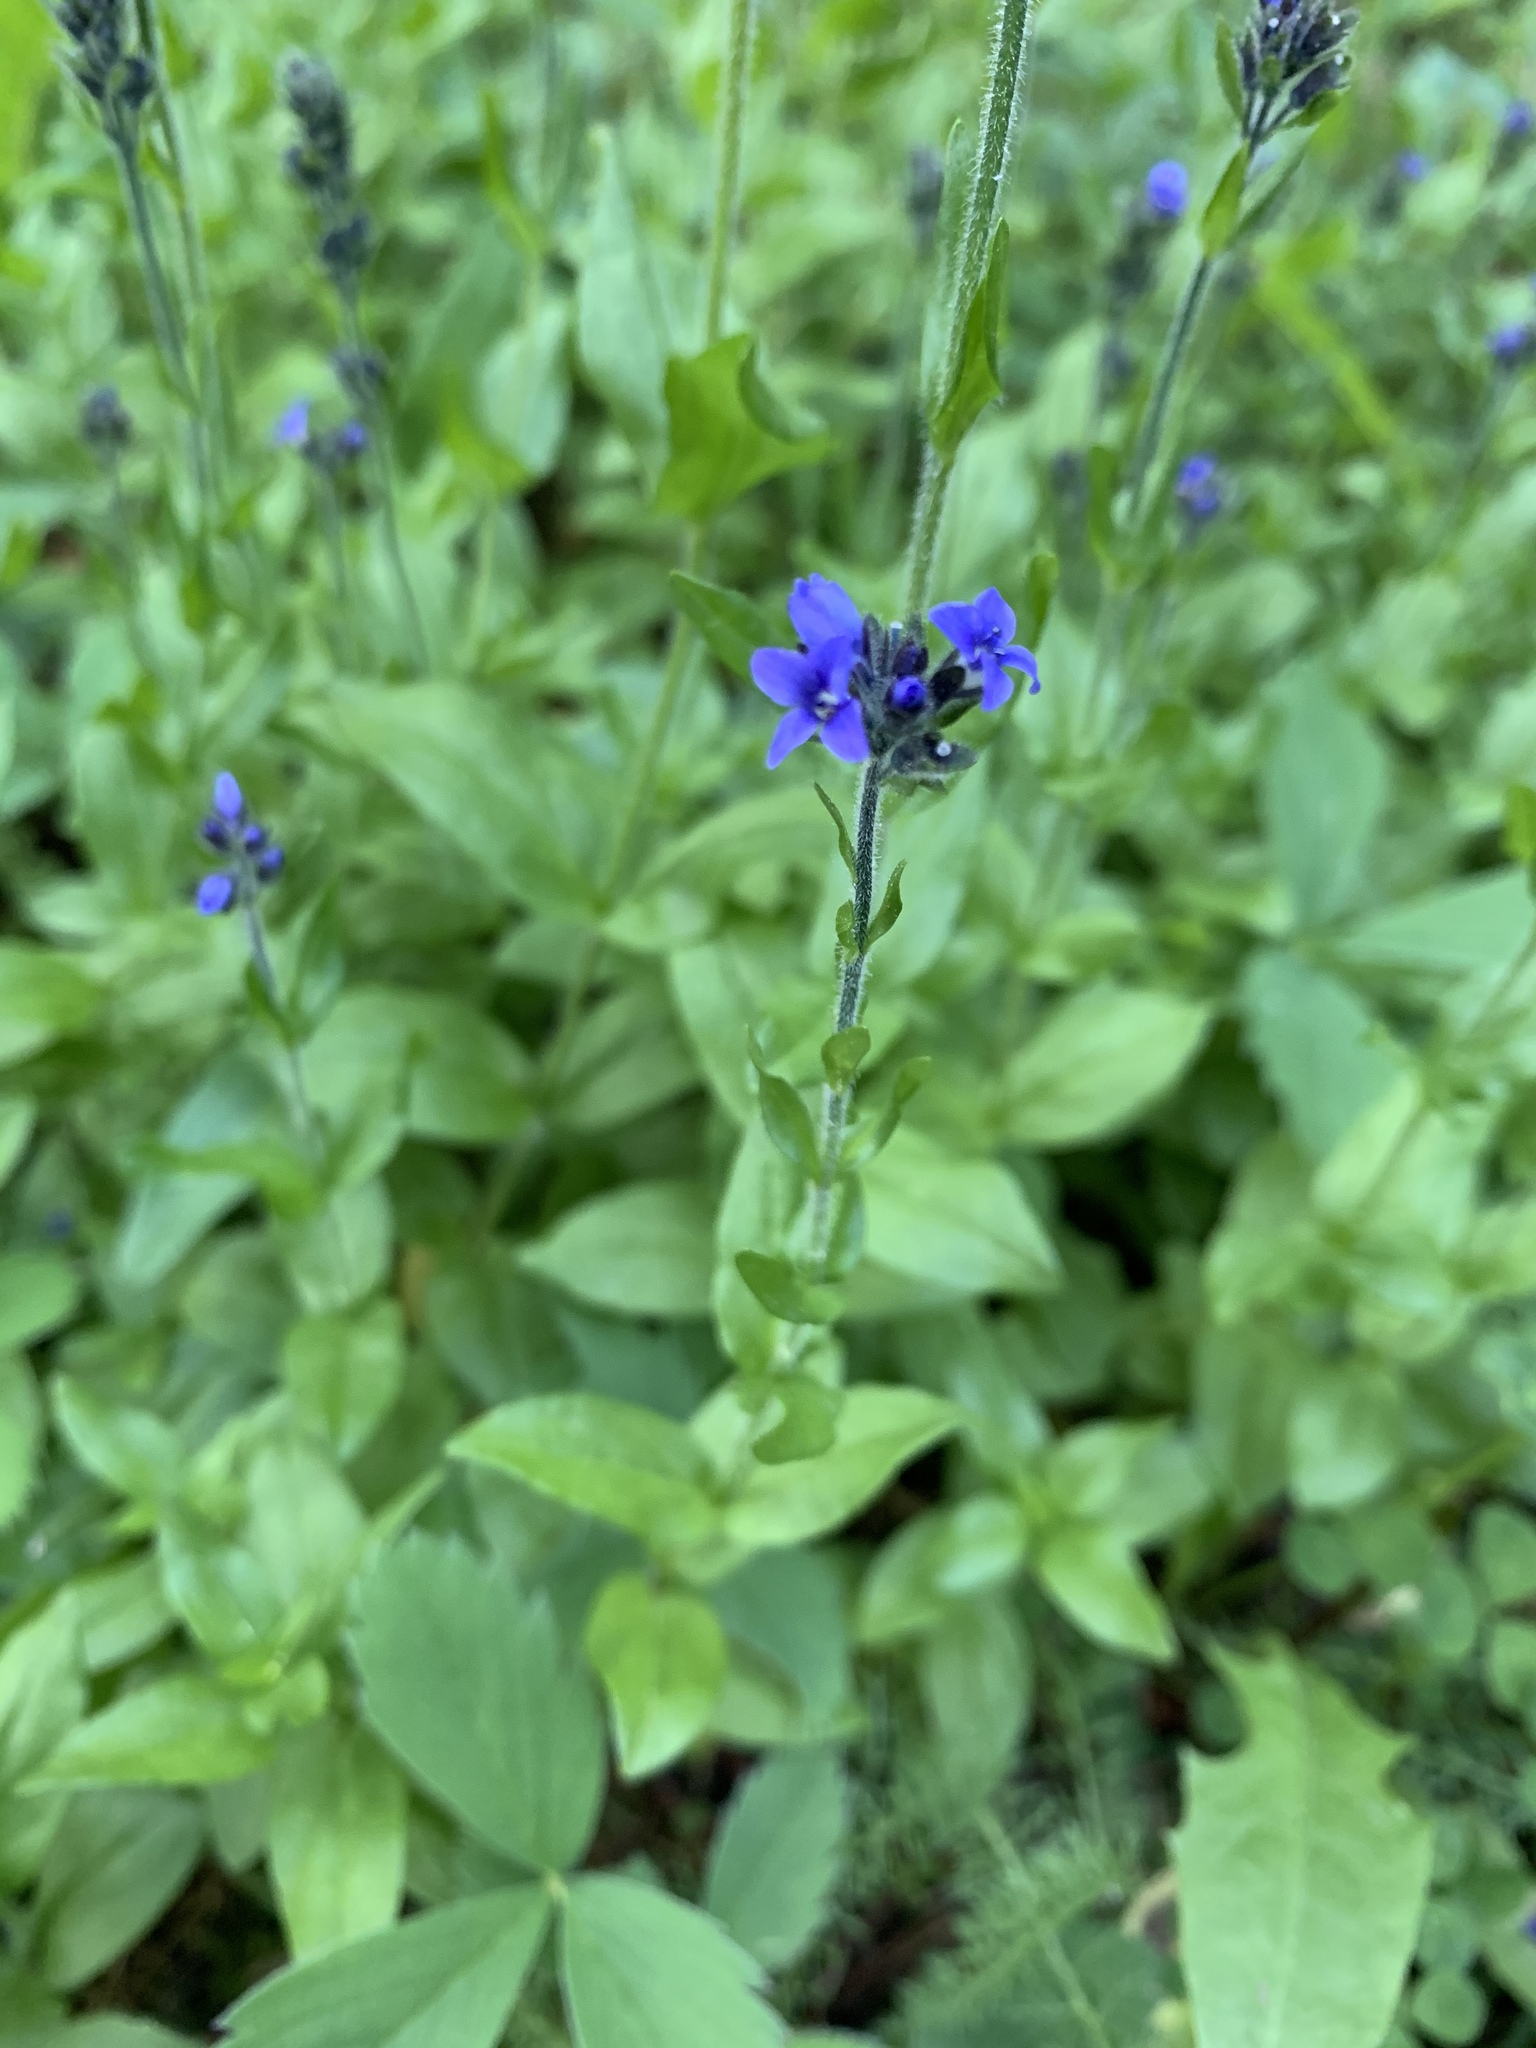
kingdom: Plantae
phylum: Tracheophyta
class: Magnoliopsida
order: Lamiales
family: Plantaginaceae
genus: Veronica
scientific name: Veronica wormskjoldii
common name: American alpine speedwell
